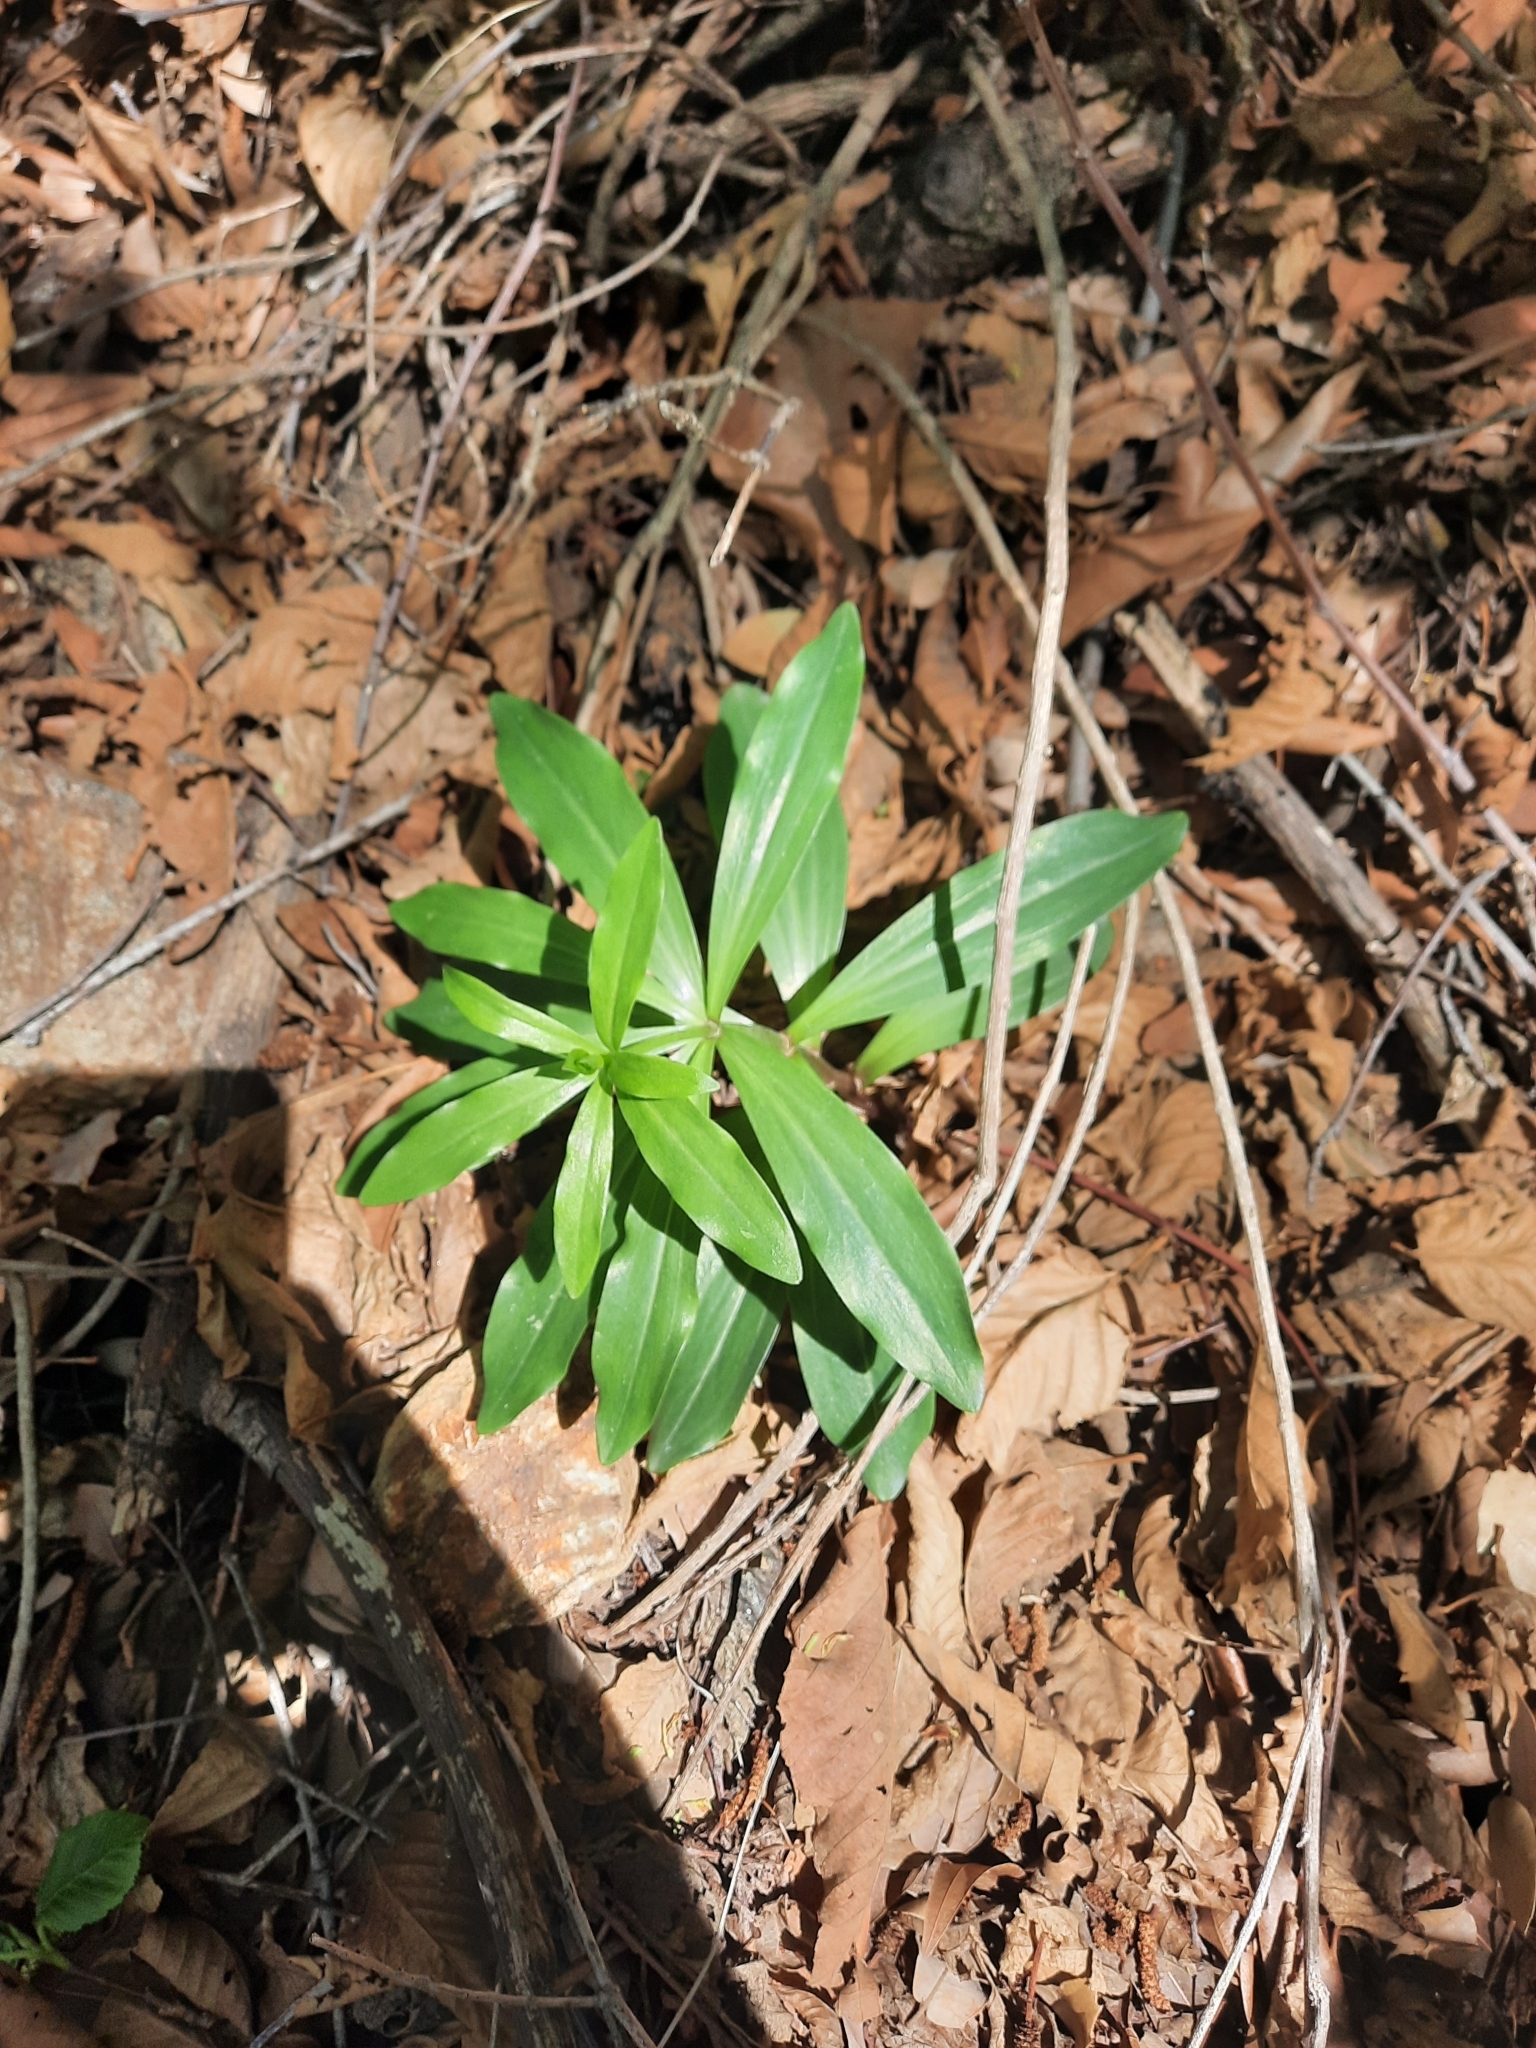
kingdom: Plantae
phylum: Tracheophyta
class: Liliopsida
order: Liliales
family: Liliaceae
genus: Lilium
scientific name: Lilium humboldtii
